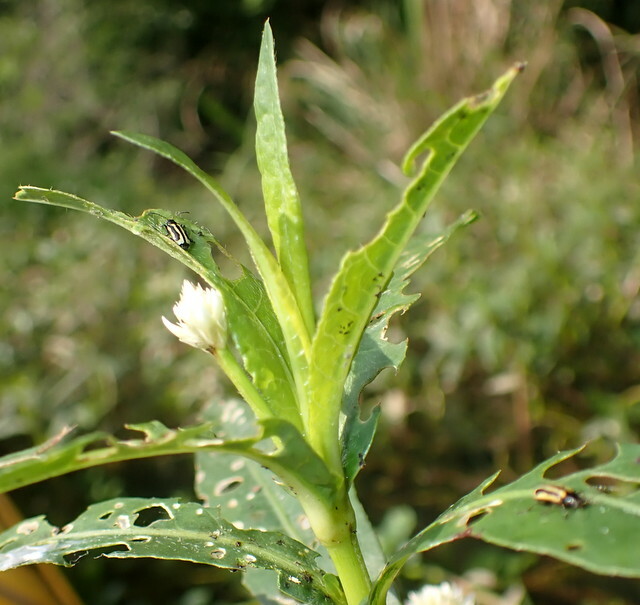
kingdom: Animalia
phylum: Arthropoda
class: Insecta
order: Coleoptera
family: Chrysomelidae
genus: Agasicles
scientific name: Agasicles hygrophila
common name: Alligatorweed flea beetle
